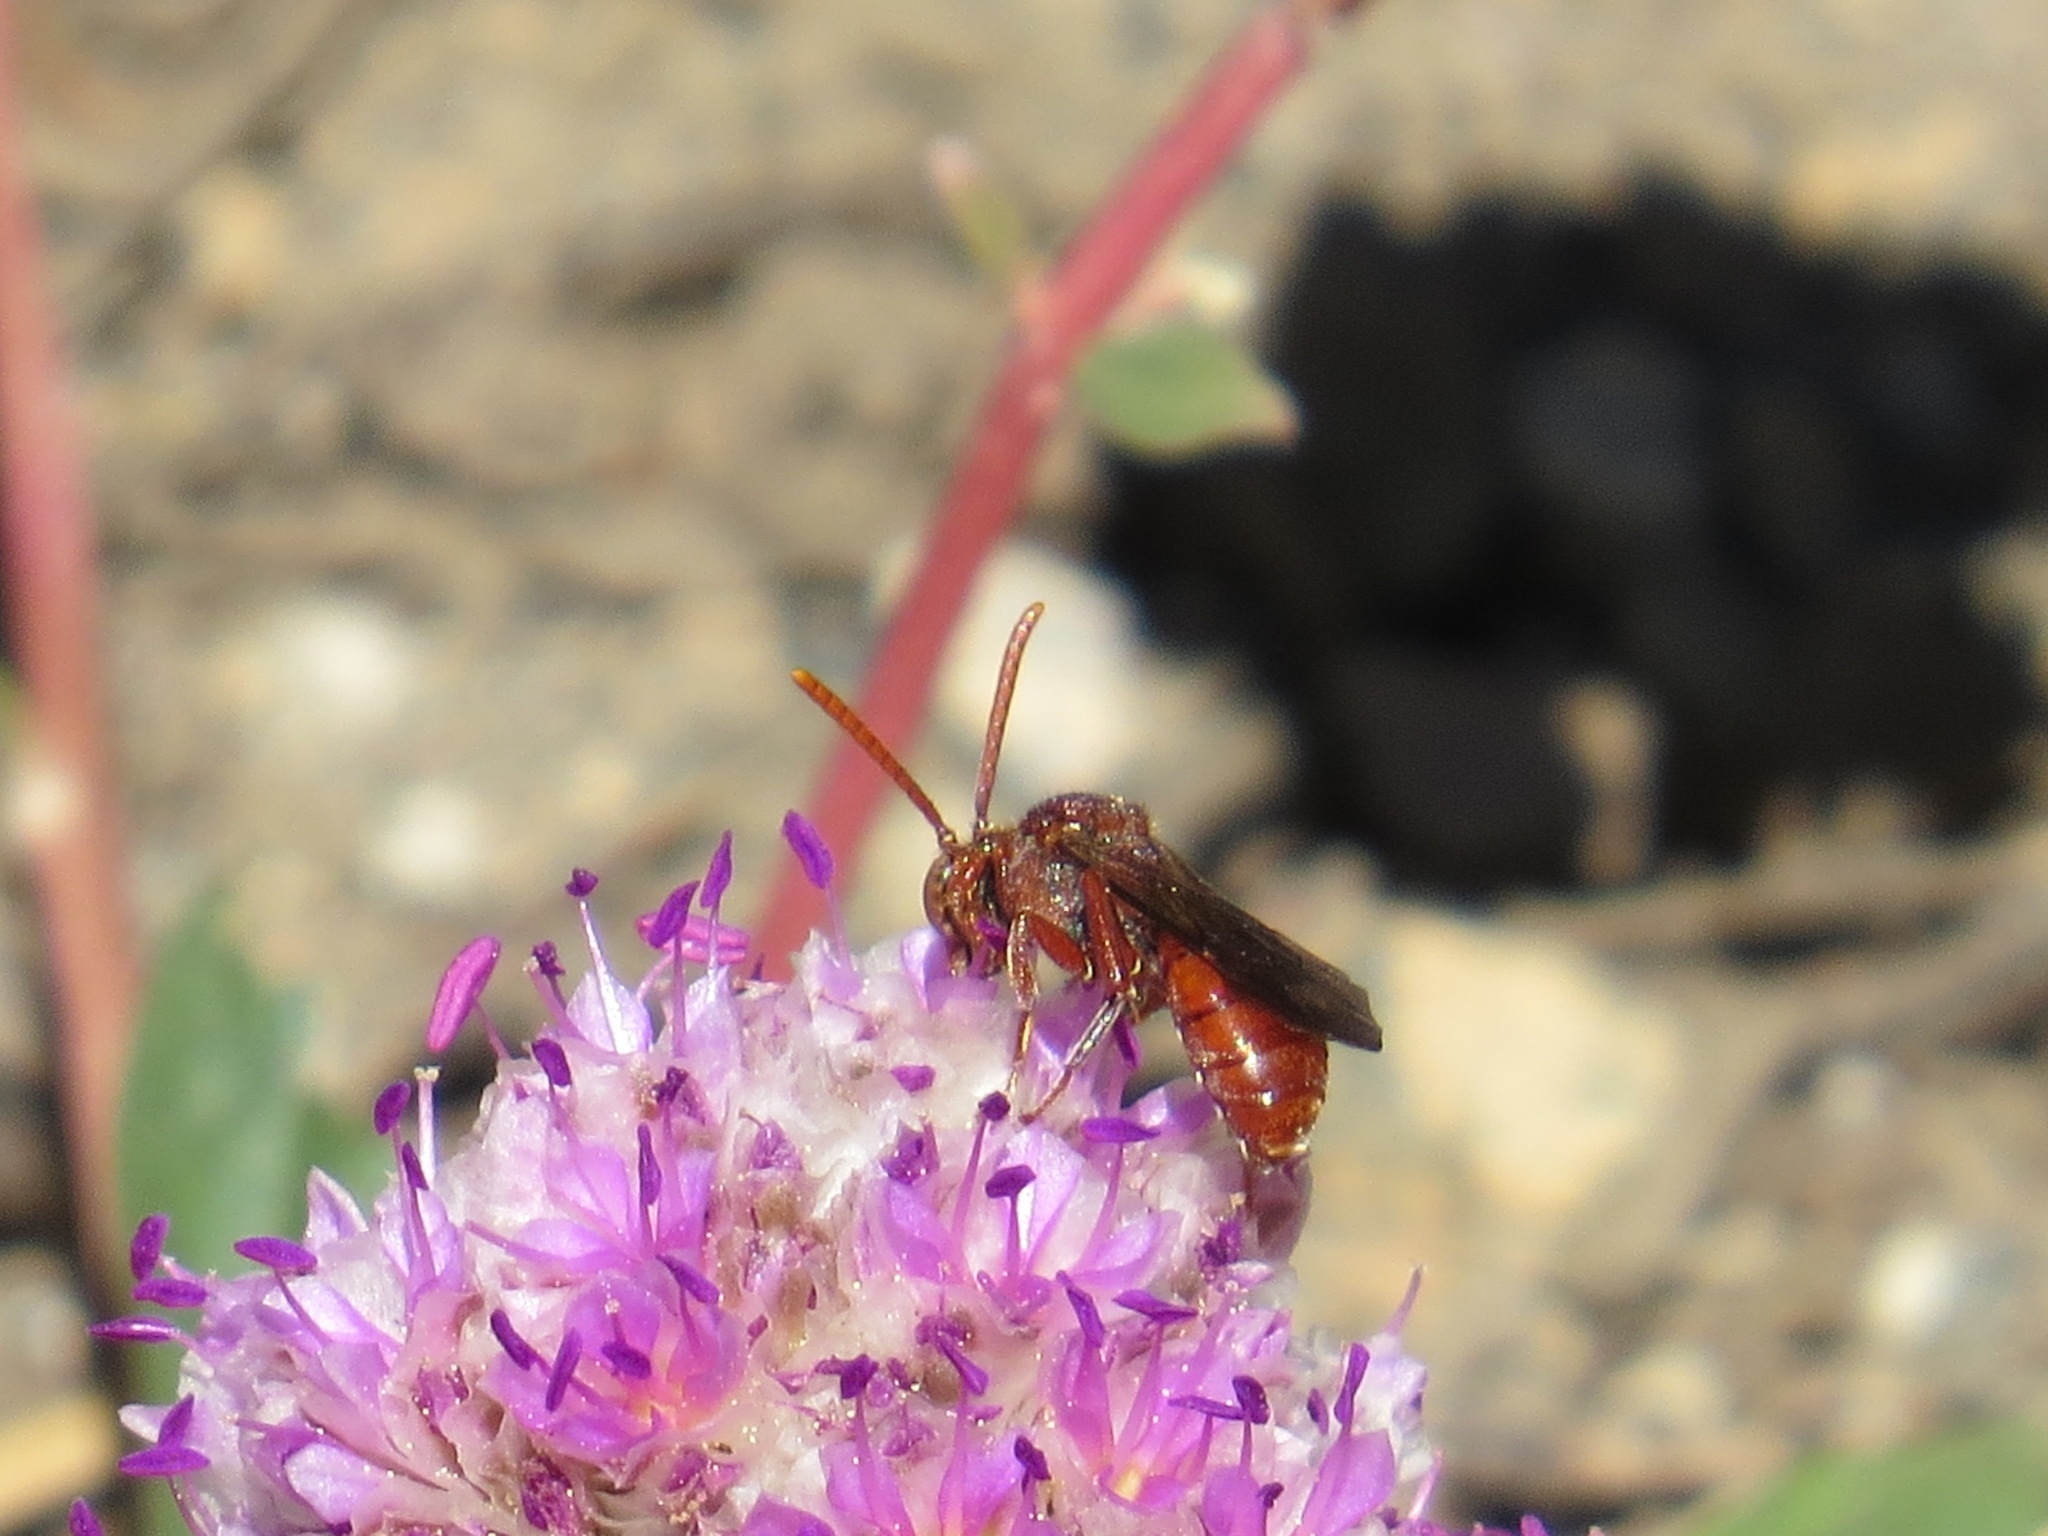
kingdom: Animalia
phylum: Arthropoda
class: Insecta
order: Hymenoptera
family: Apidae
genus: Nomada
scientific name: Nomada
